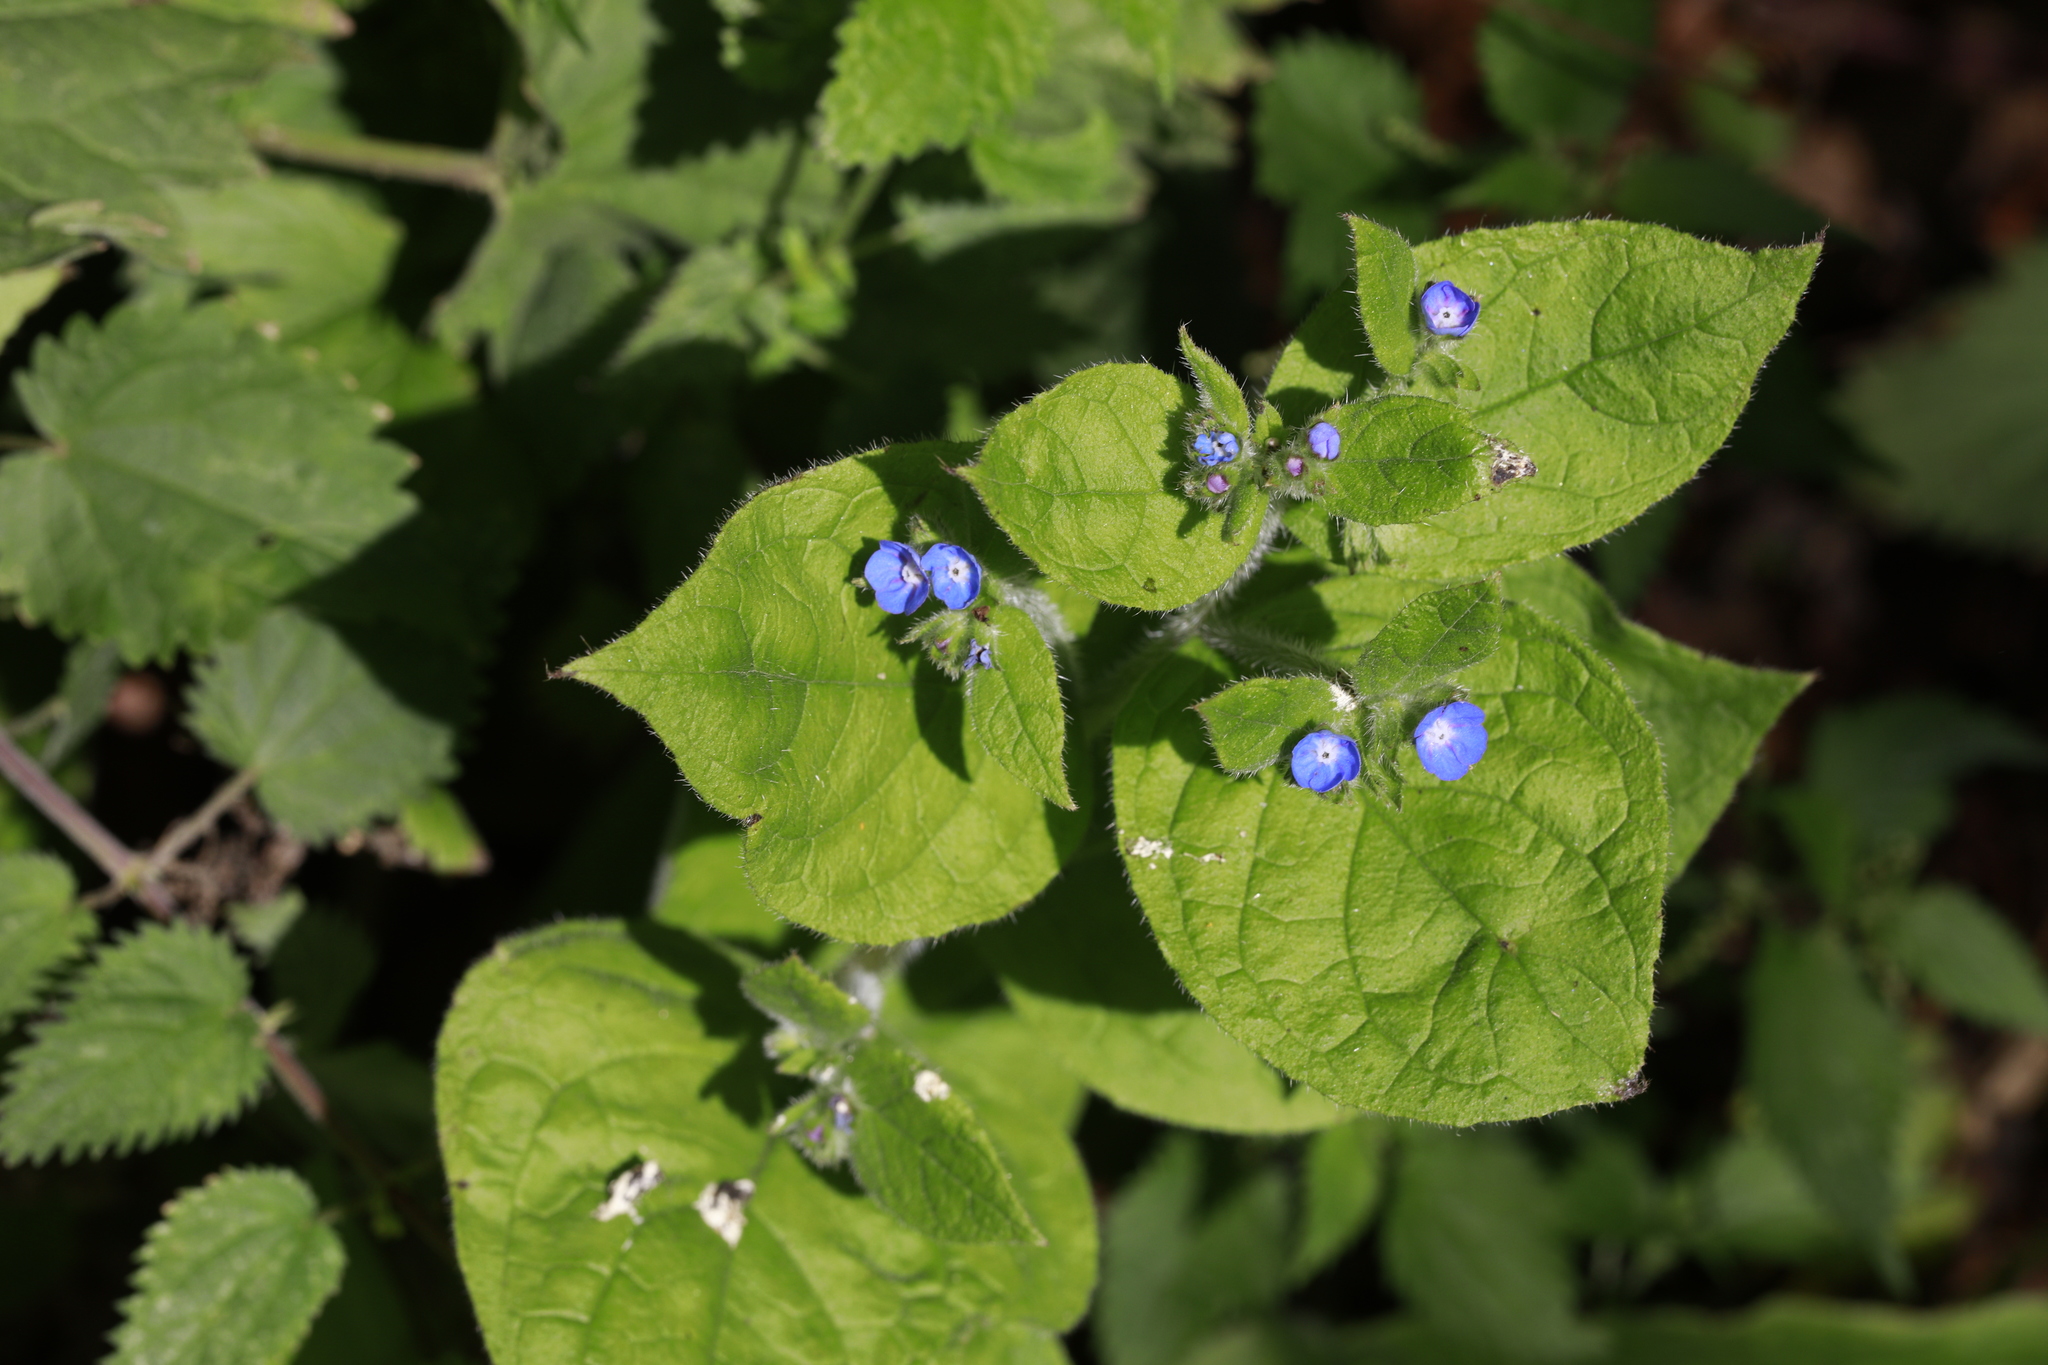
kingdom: Plantae
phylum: Tracheophyta
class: Magnoliopsida
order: Boraginales
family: Boraginaceae
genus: Pentaglottis
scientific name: Pentaglottis sempervirens
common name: Green alkanet
